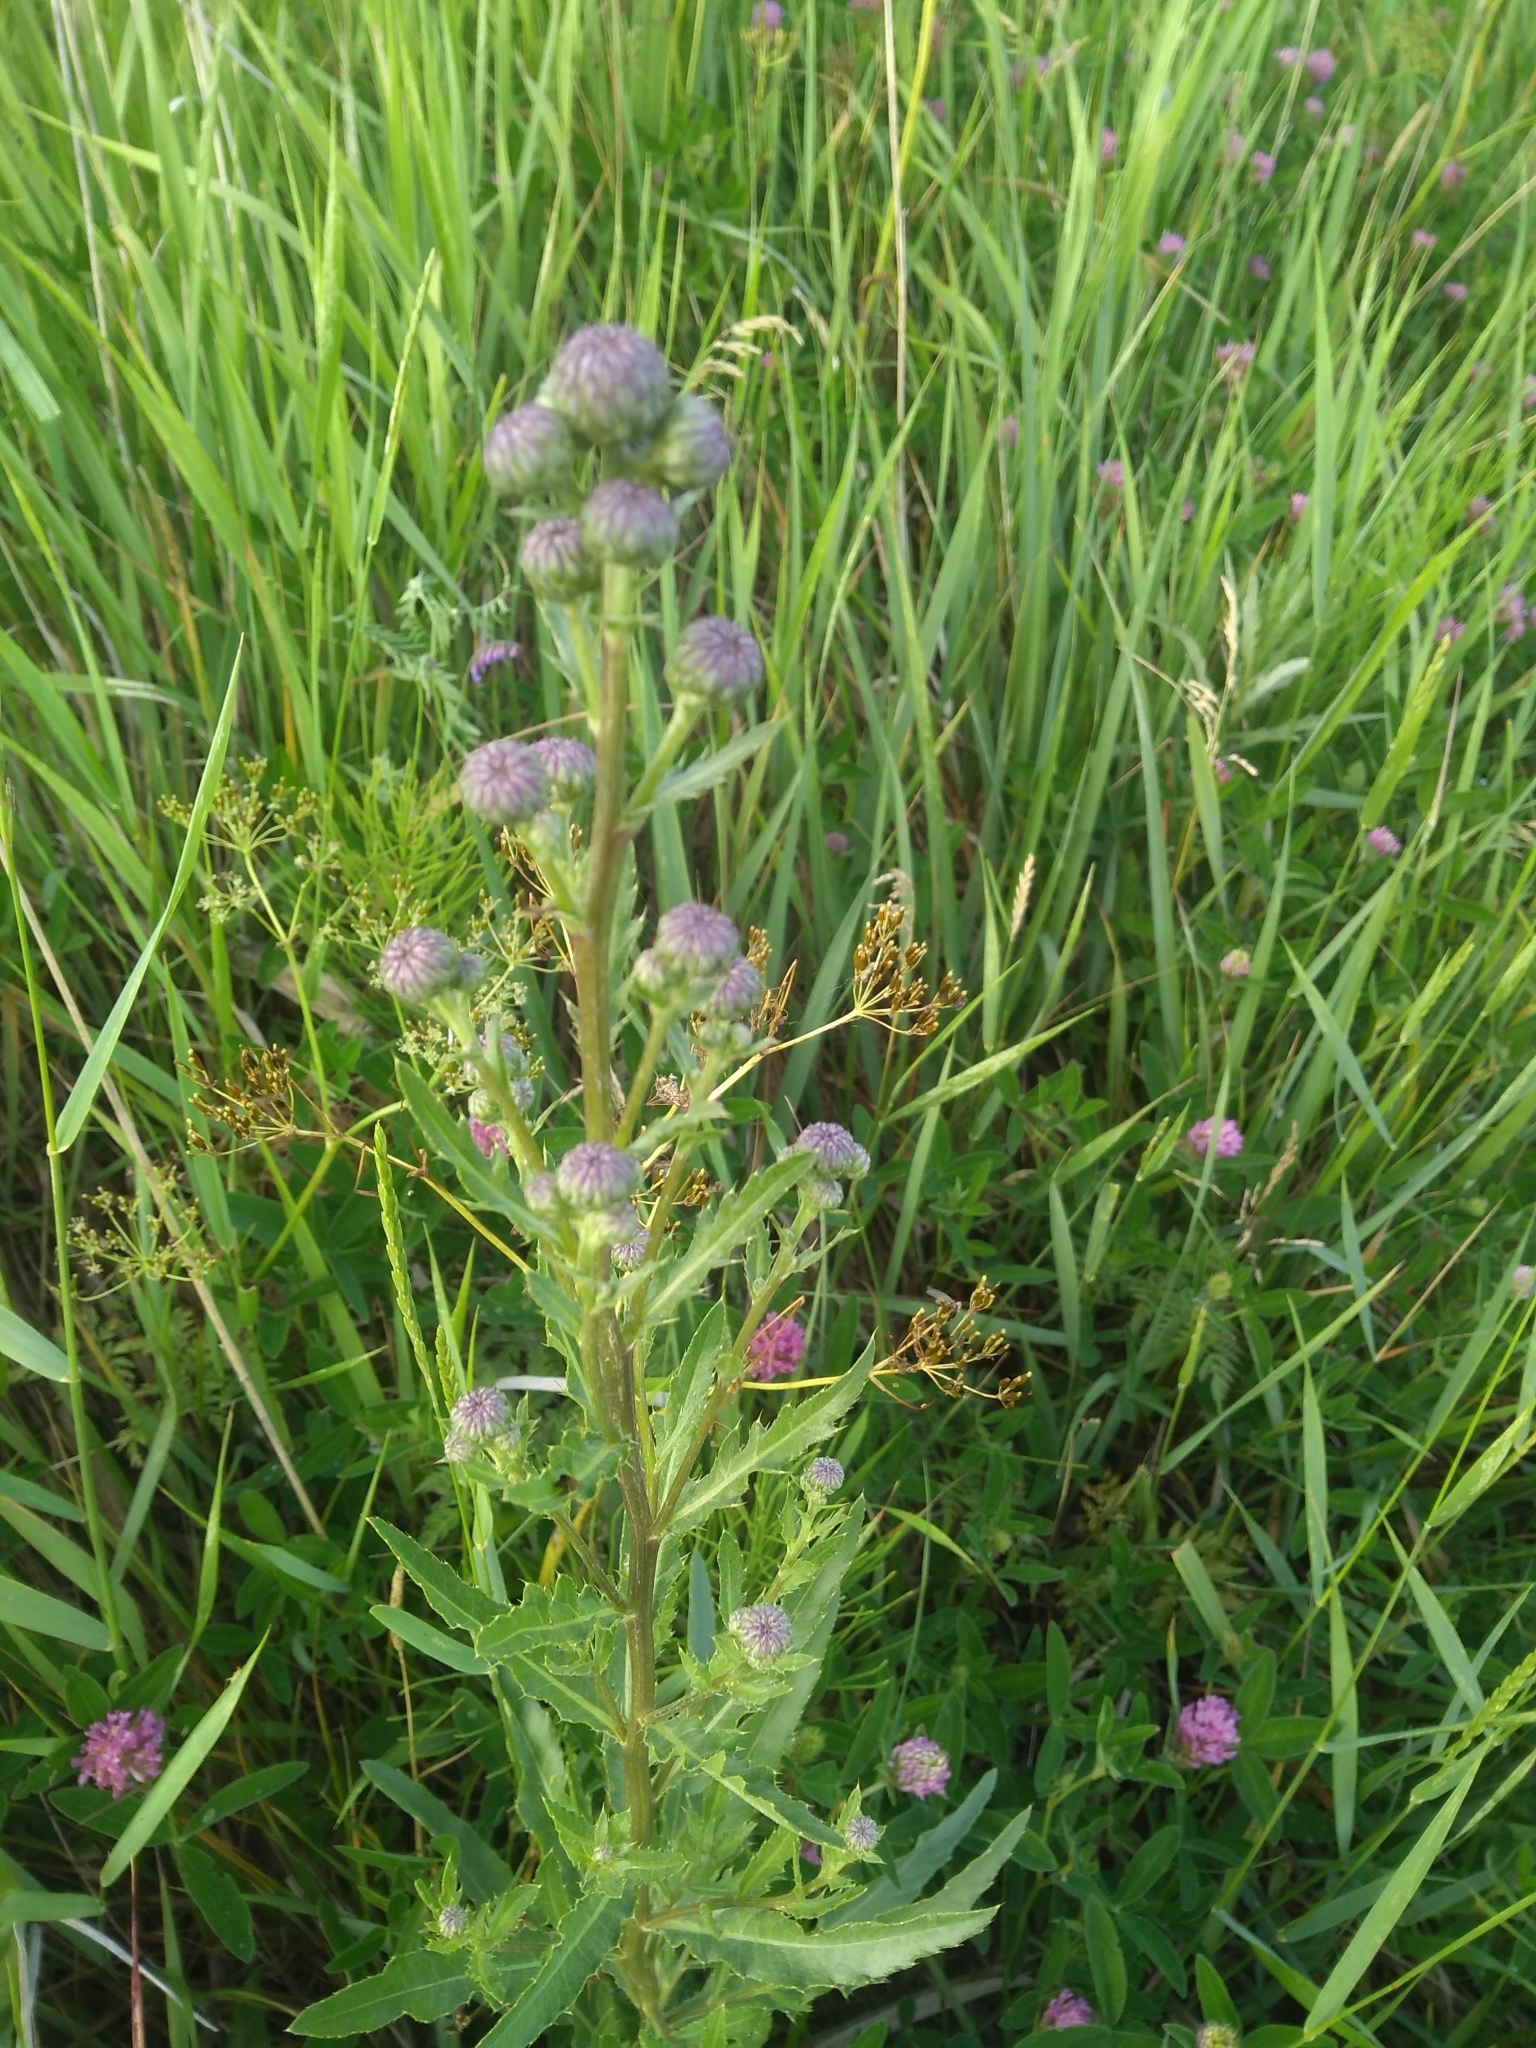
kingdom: Plantae
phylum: Tracheophyta
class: Magnoliopsida
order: Asterales
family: Asteraceae
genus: Cirsium
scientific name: Cirsium arvense
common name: Creeping thistle
